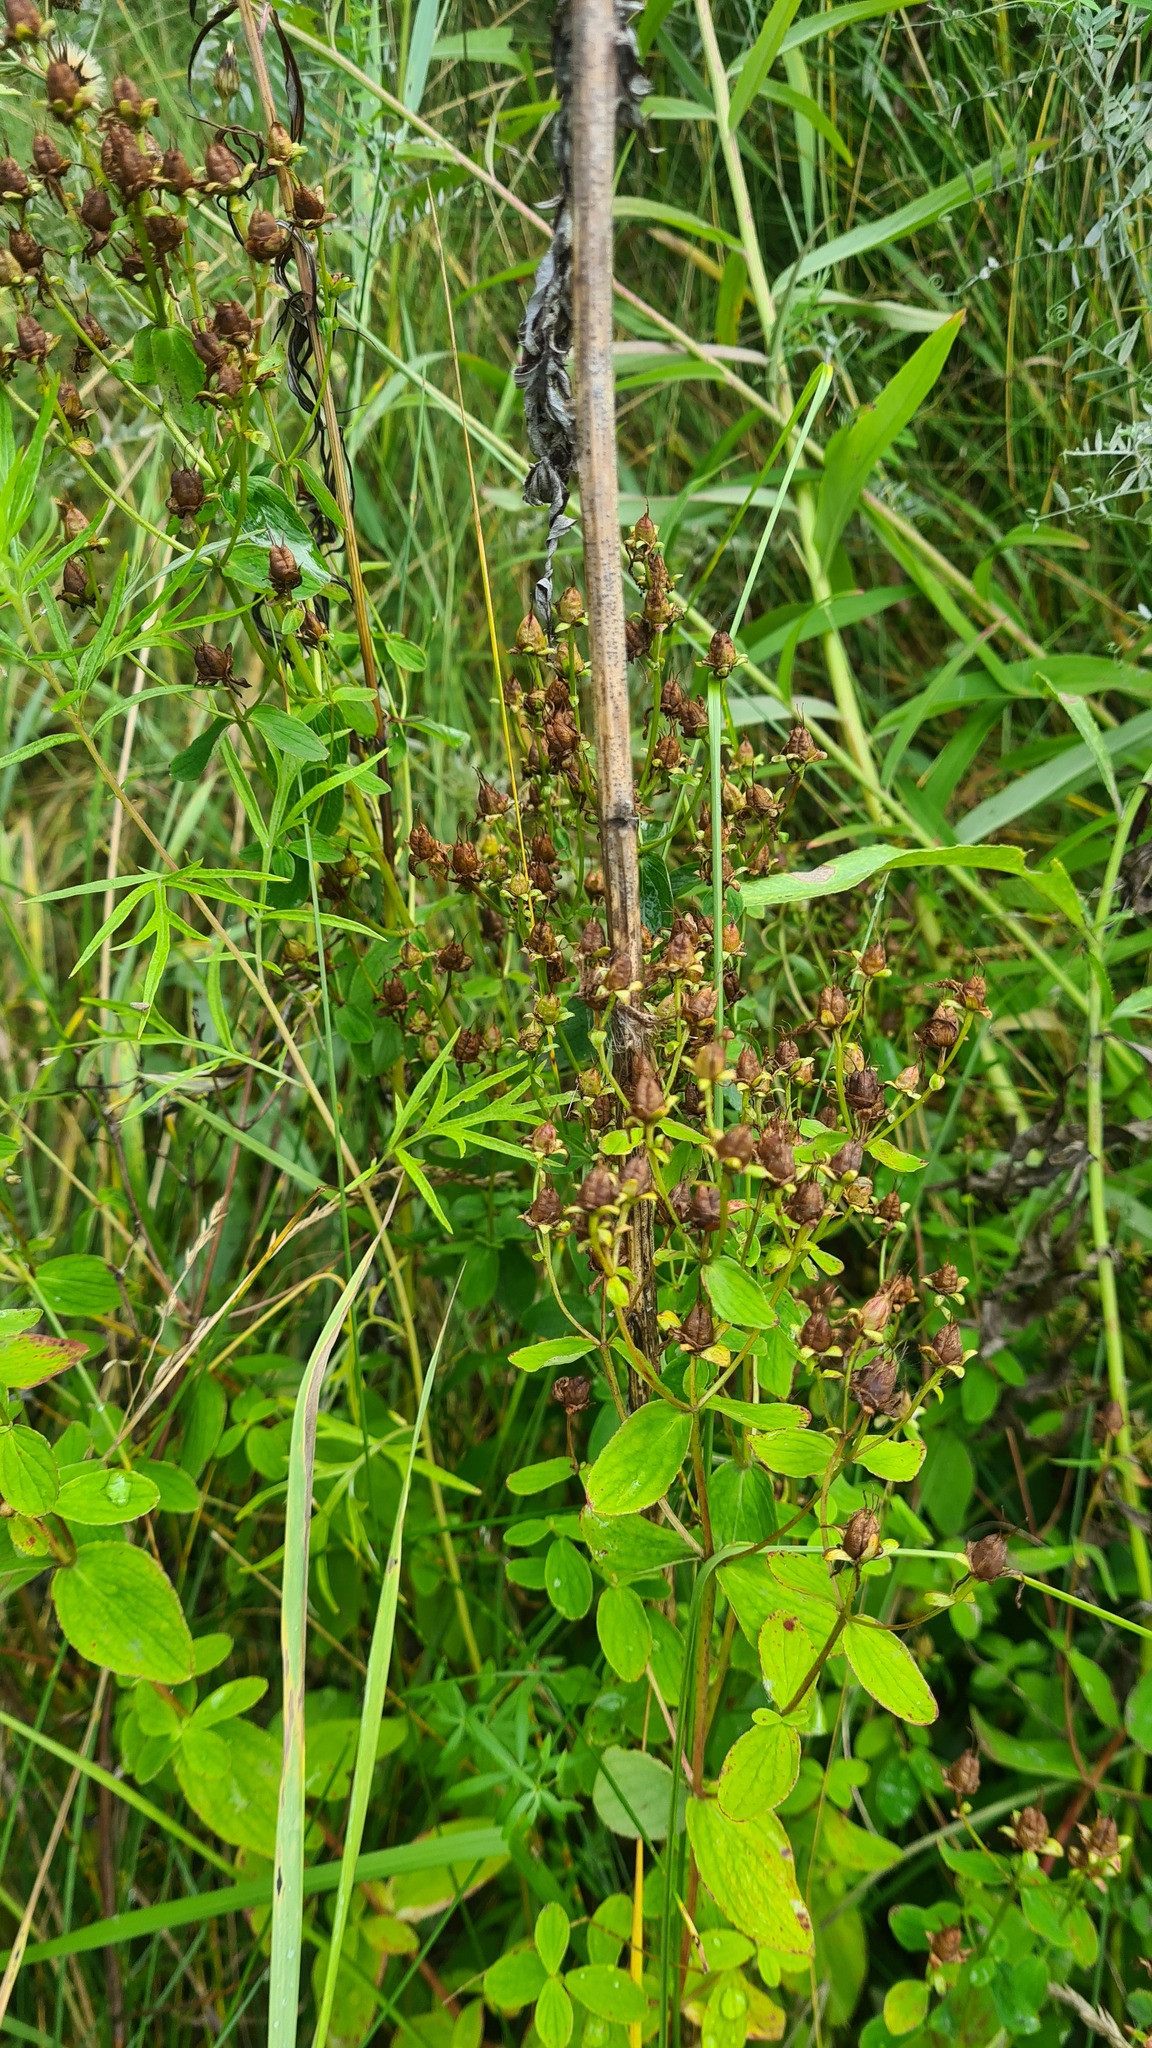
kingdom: Plantae
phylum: Tracheophyta
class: Magnoliopsida
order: Malpighiales
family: Hypericaceae
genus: Hypericum
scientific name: Hypericum maculatum
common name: Imperforate st. john's-wort
